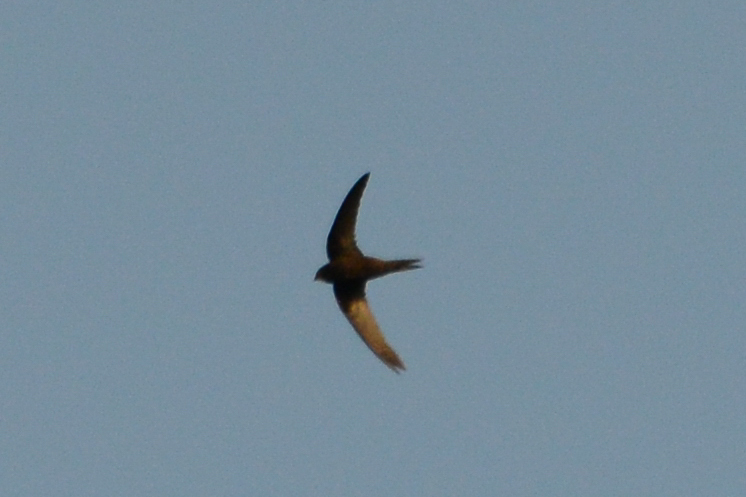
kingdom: Animalia
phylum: Chordata
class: Aves
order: Apodiformes
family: Apodidae
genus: Apus
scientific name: Apus apus
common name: Common swift
